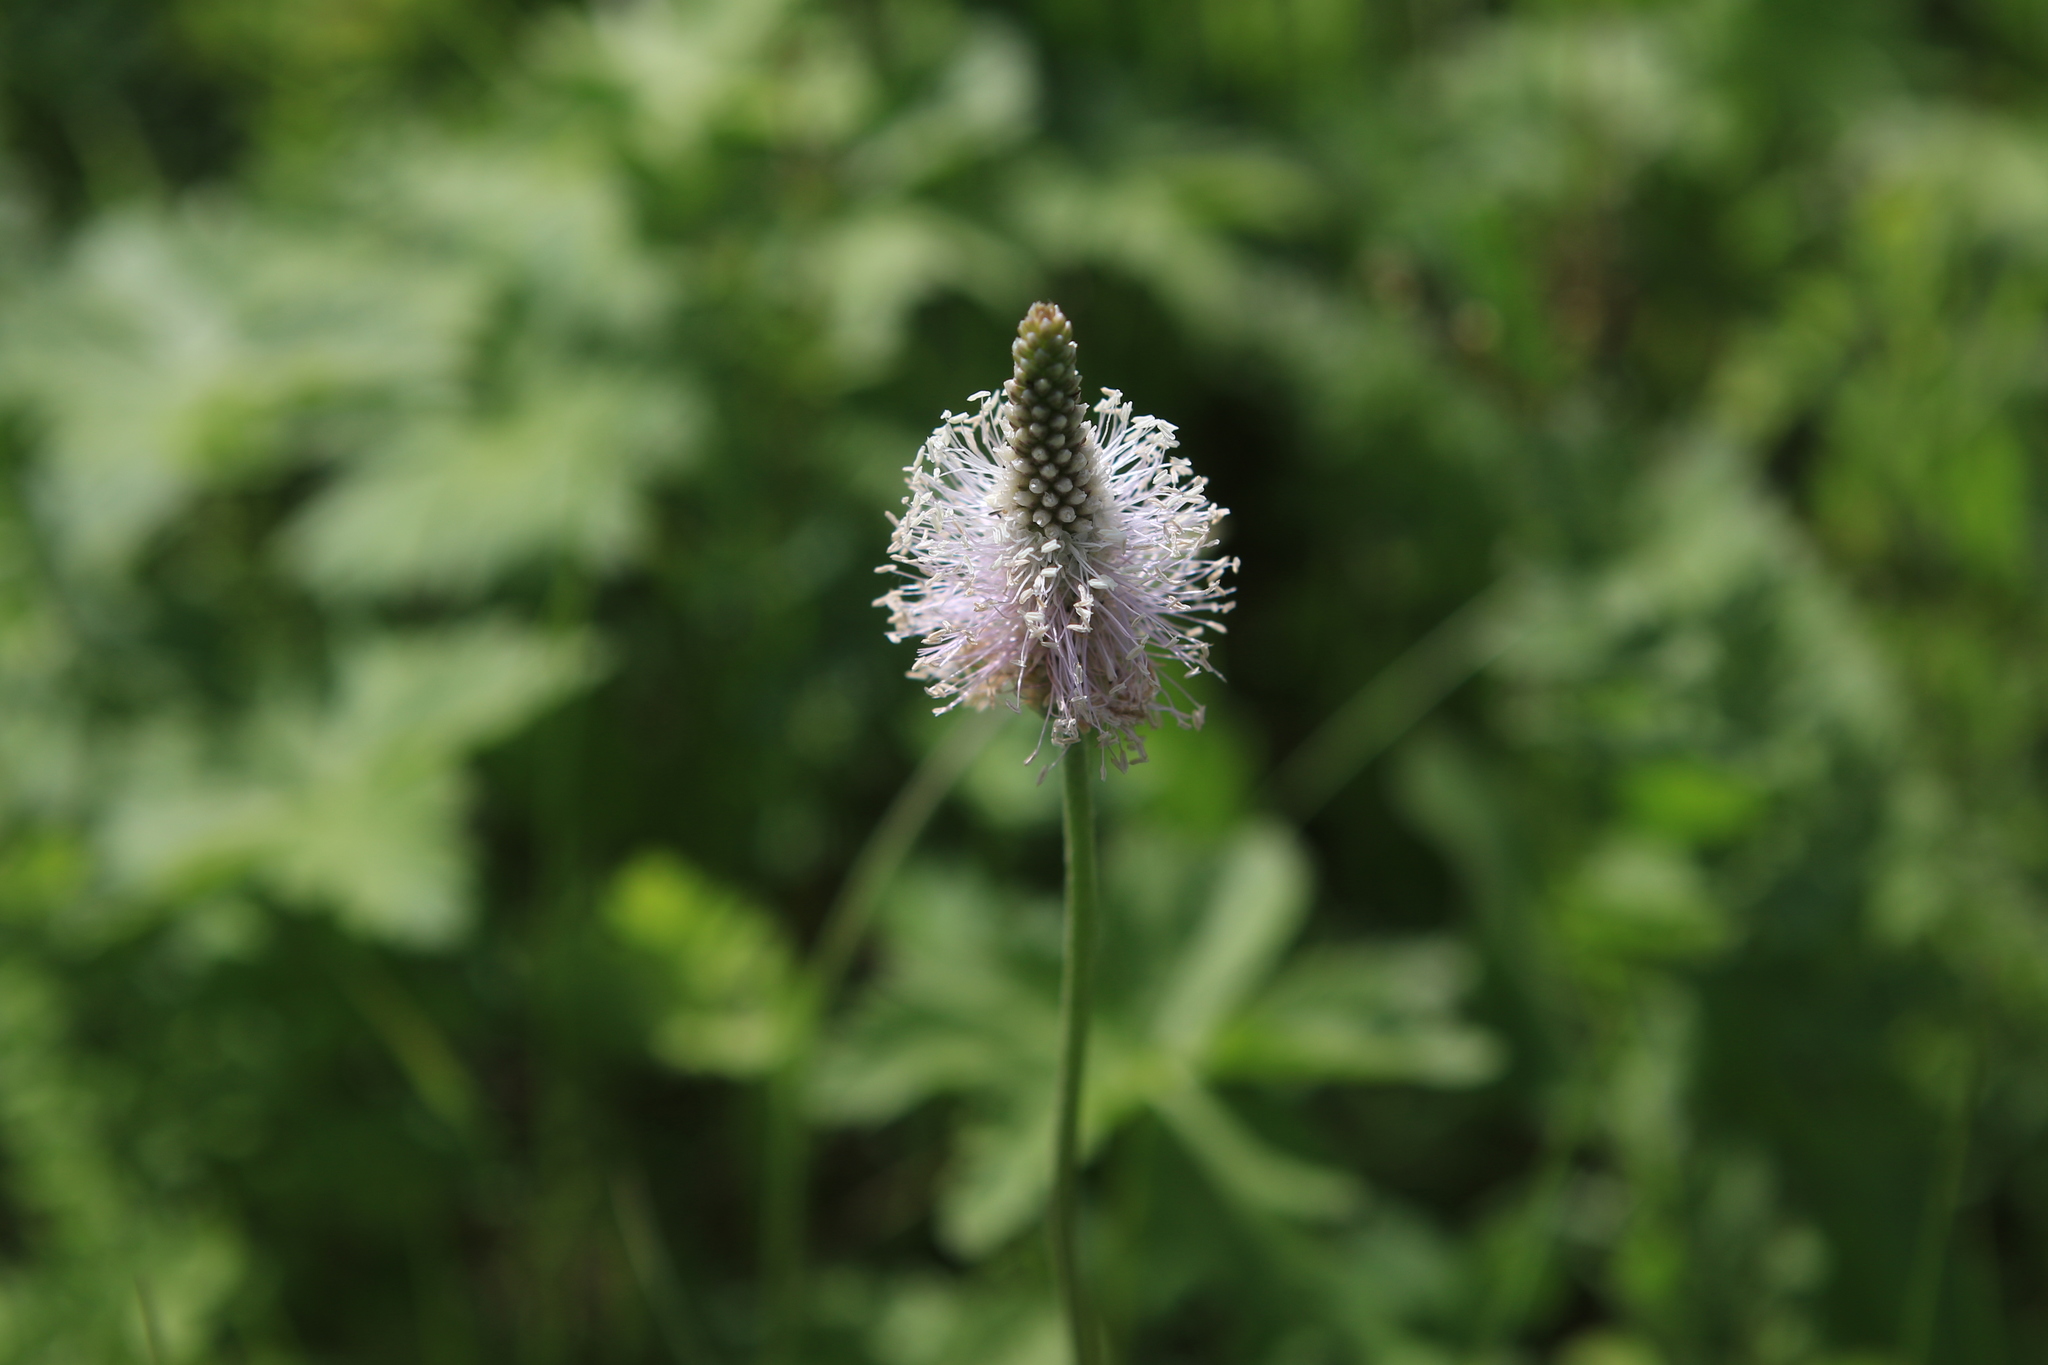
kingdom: Plantae
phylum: Tracheophyta
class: Magnoliopsida
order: Lamiales
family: Plantaginaceae
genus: Plantago
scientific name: Plantago media
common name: Hoary plantain
